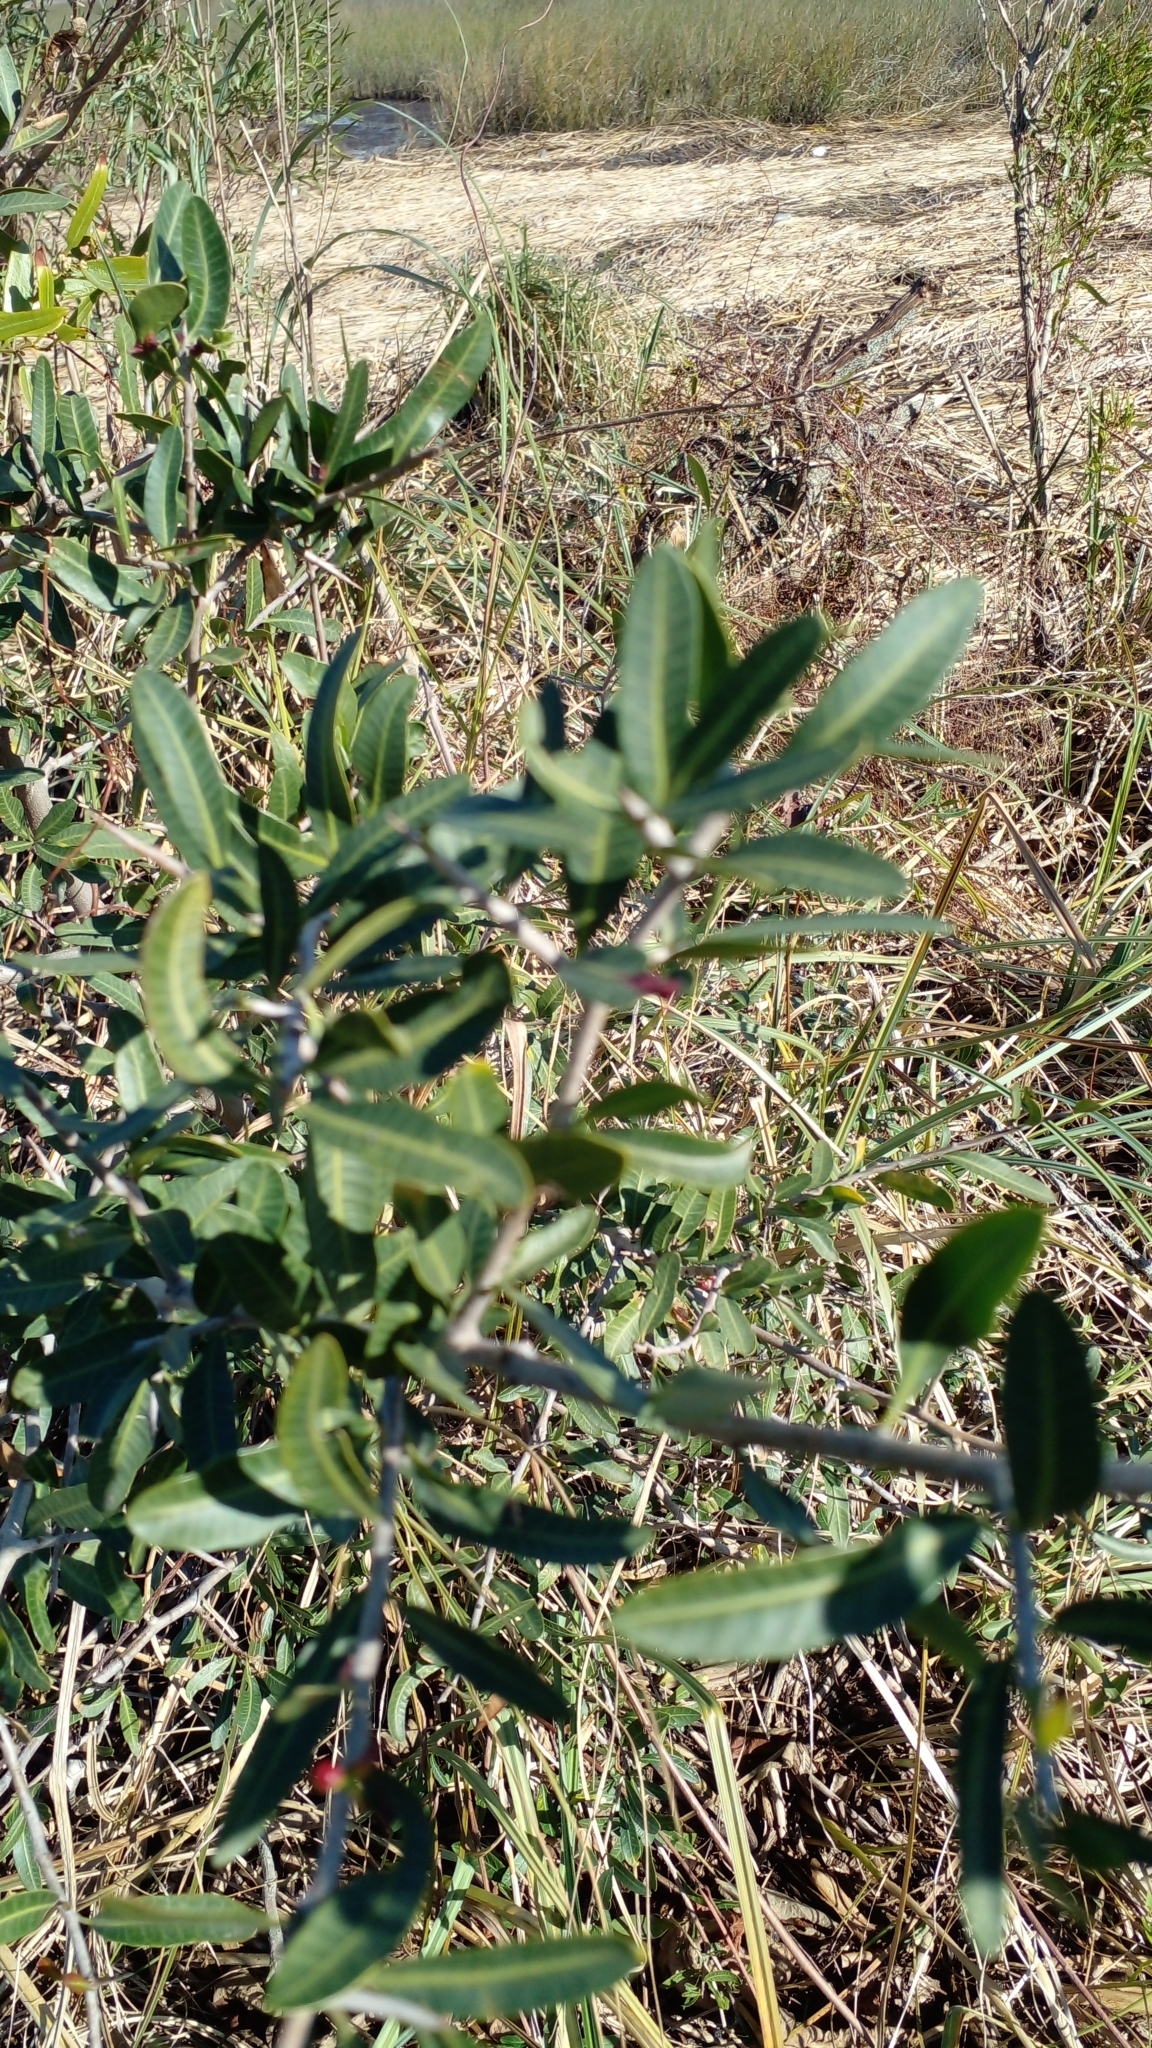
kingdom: Plantae
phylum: Tracheophyta
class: Magnoliopsida
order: Sapindales
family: Anacardiaceae
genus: Schinus
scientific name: Schinus longifolia
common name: Longleaf peppertree
